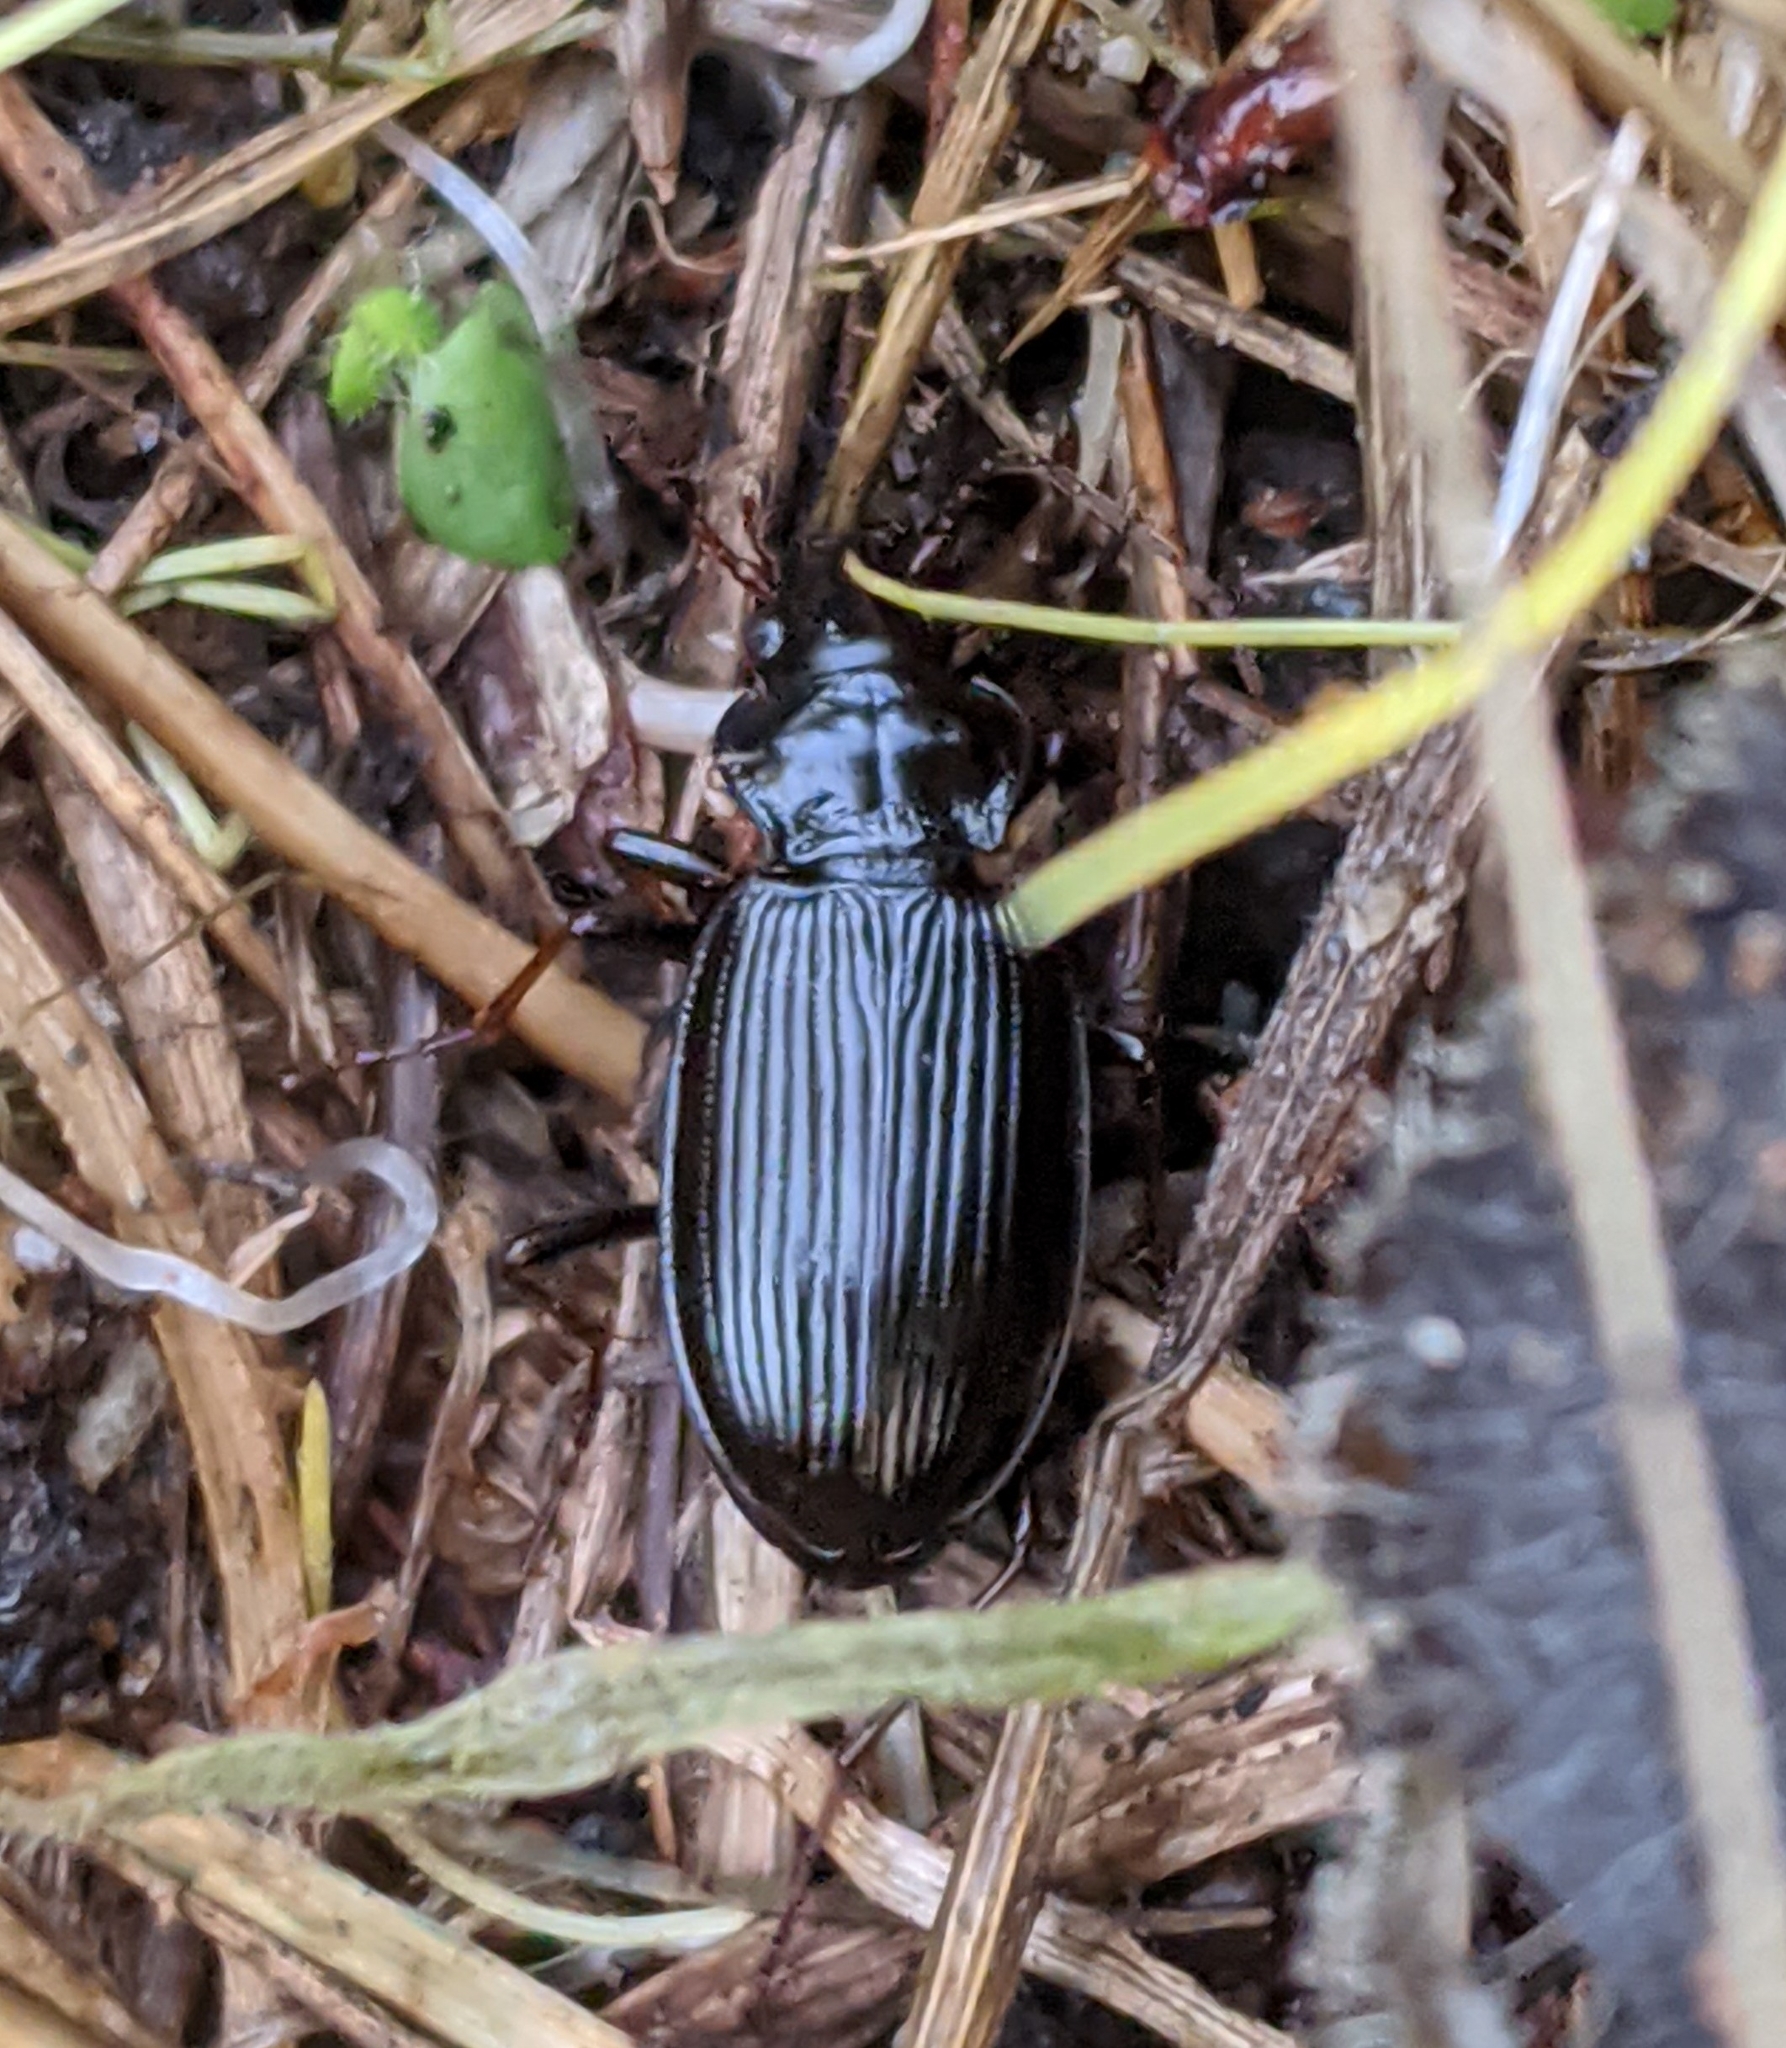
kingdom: Animalia
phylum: Arthropoda
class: Insecta
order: Coleoptera
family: Carabidae
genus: Nebria
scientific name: Nebria brevicollis
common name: Short-necked gazelle beetle
